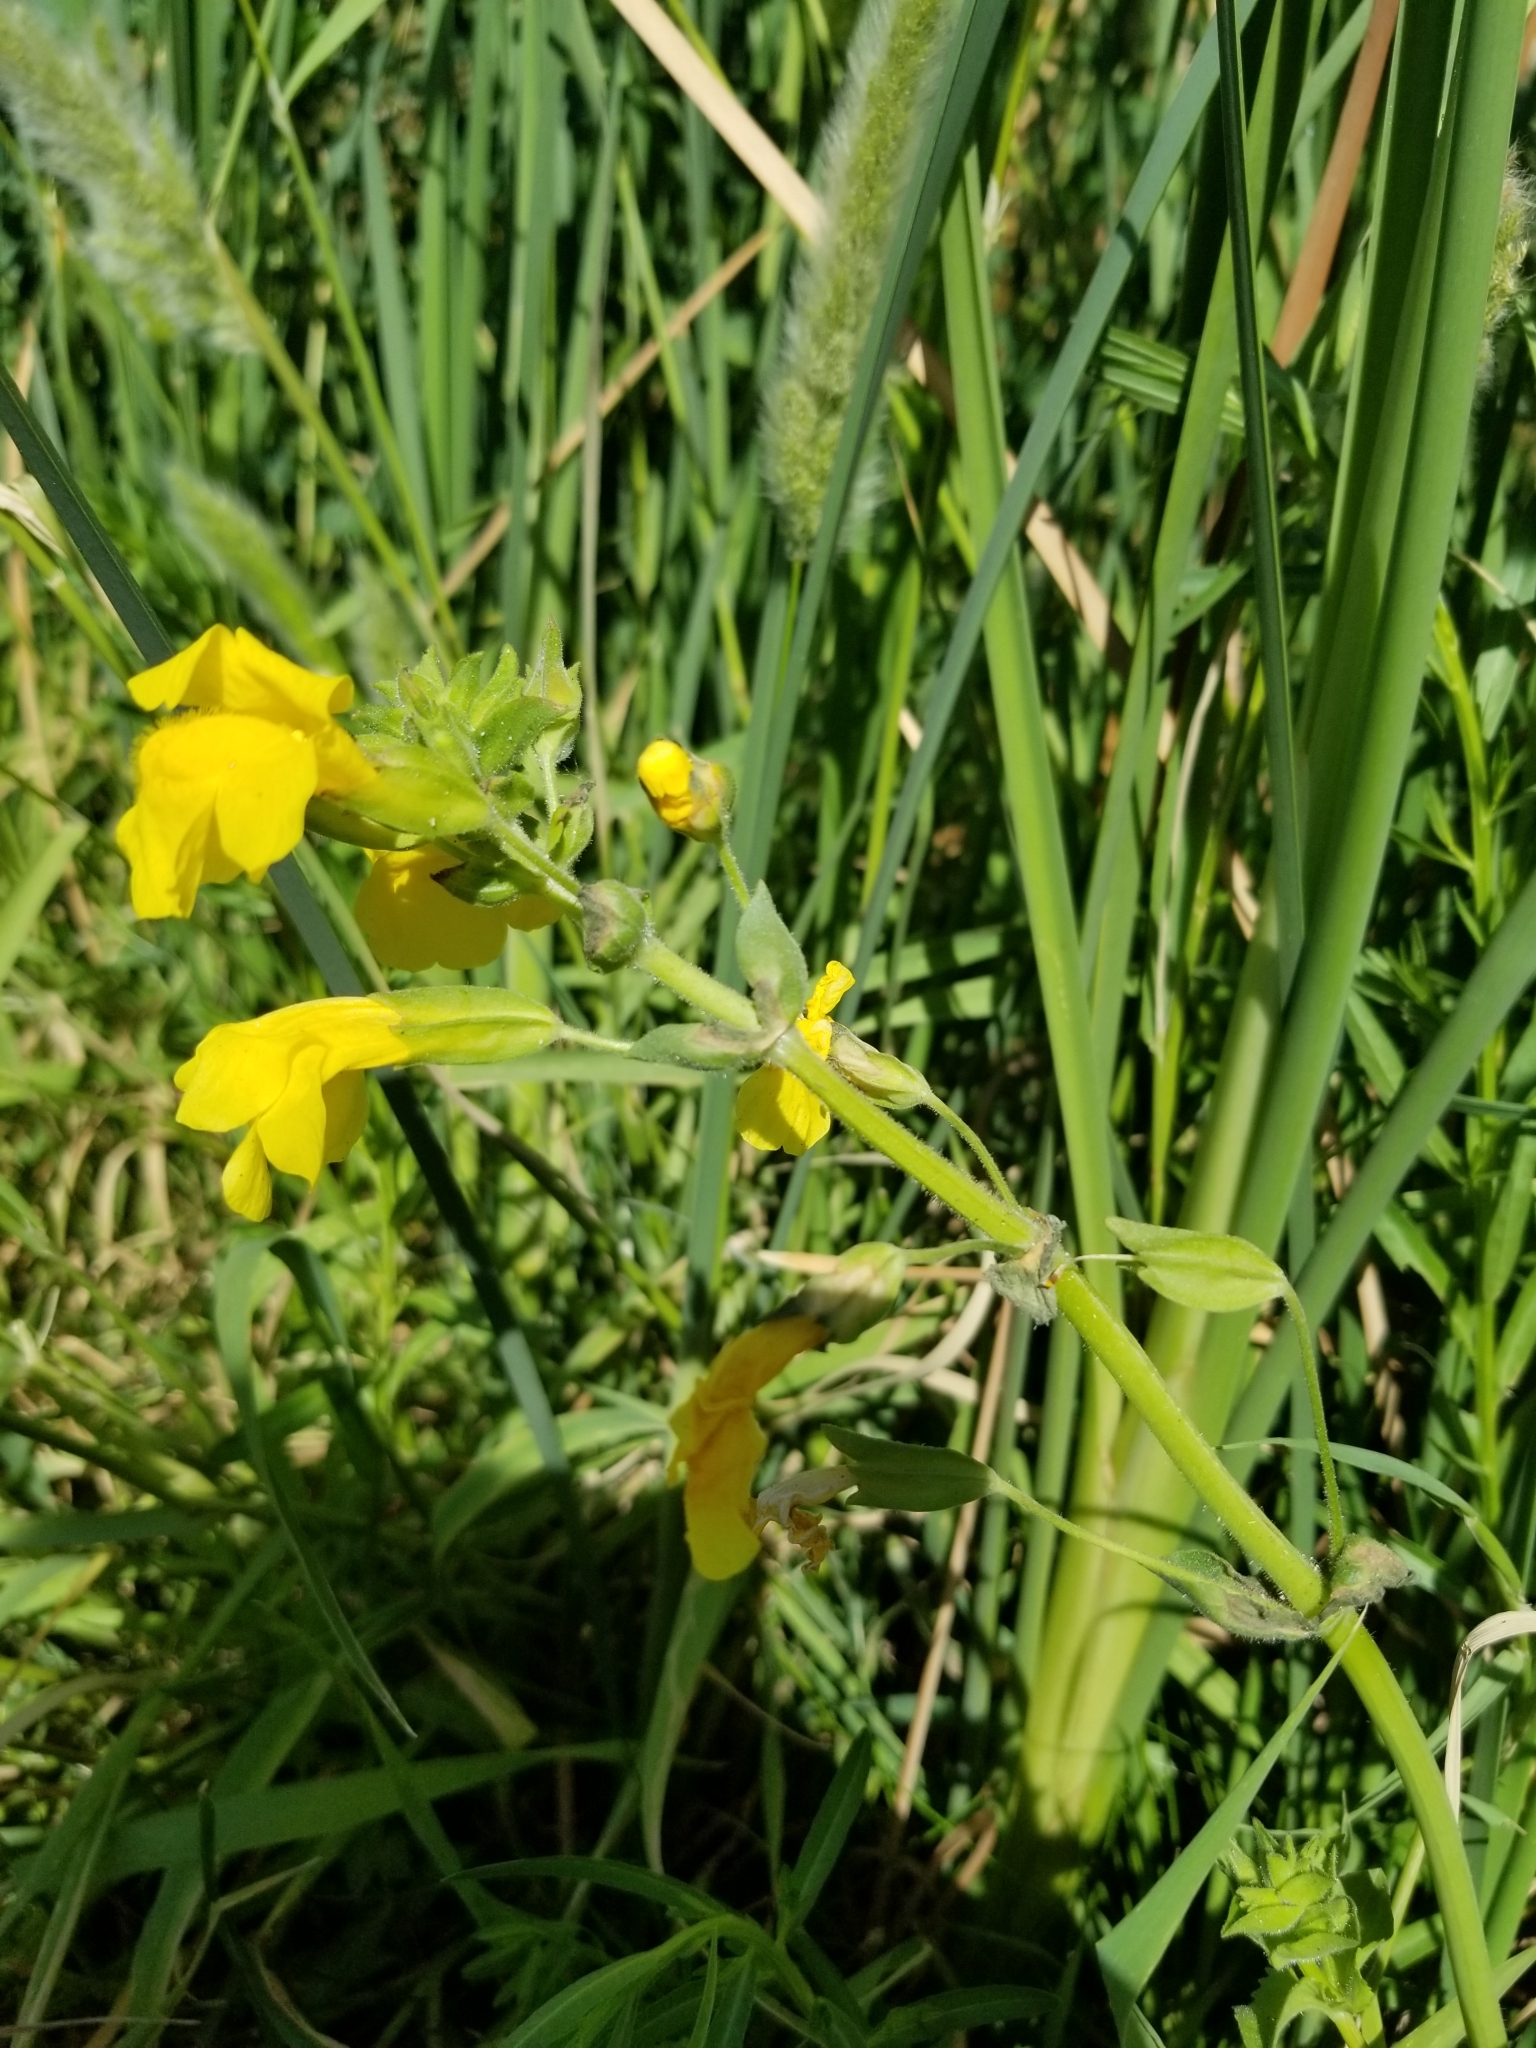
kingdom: Plantae
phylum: Tracheophyta
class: Magnoliopsida
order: Lamiales
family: Phrymaceae
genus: Erythranthe
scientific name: Erythranthe guttata
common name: Monkeyflower
